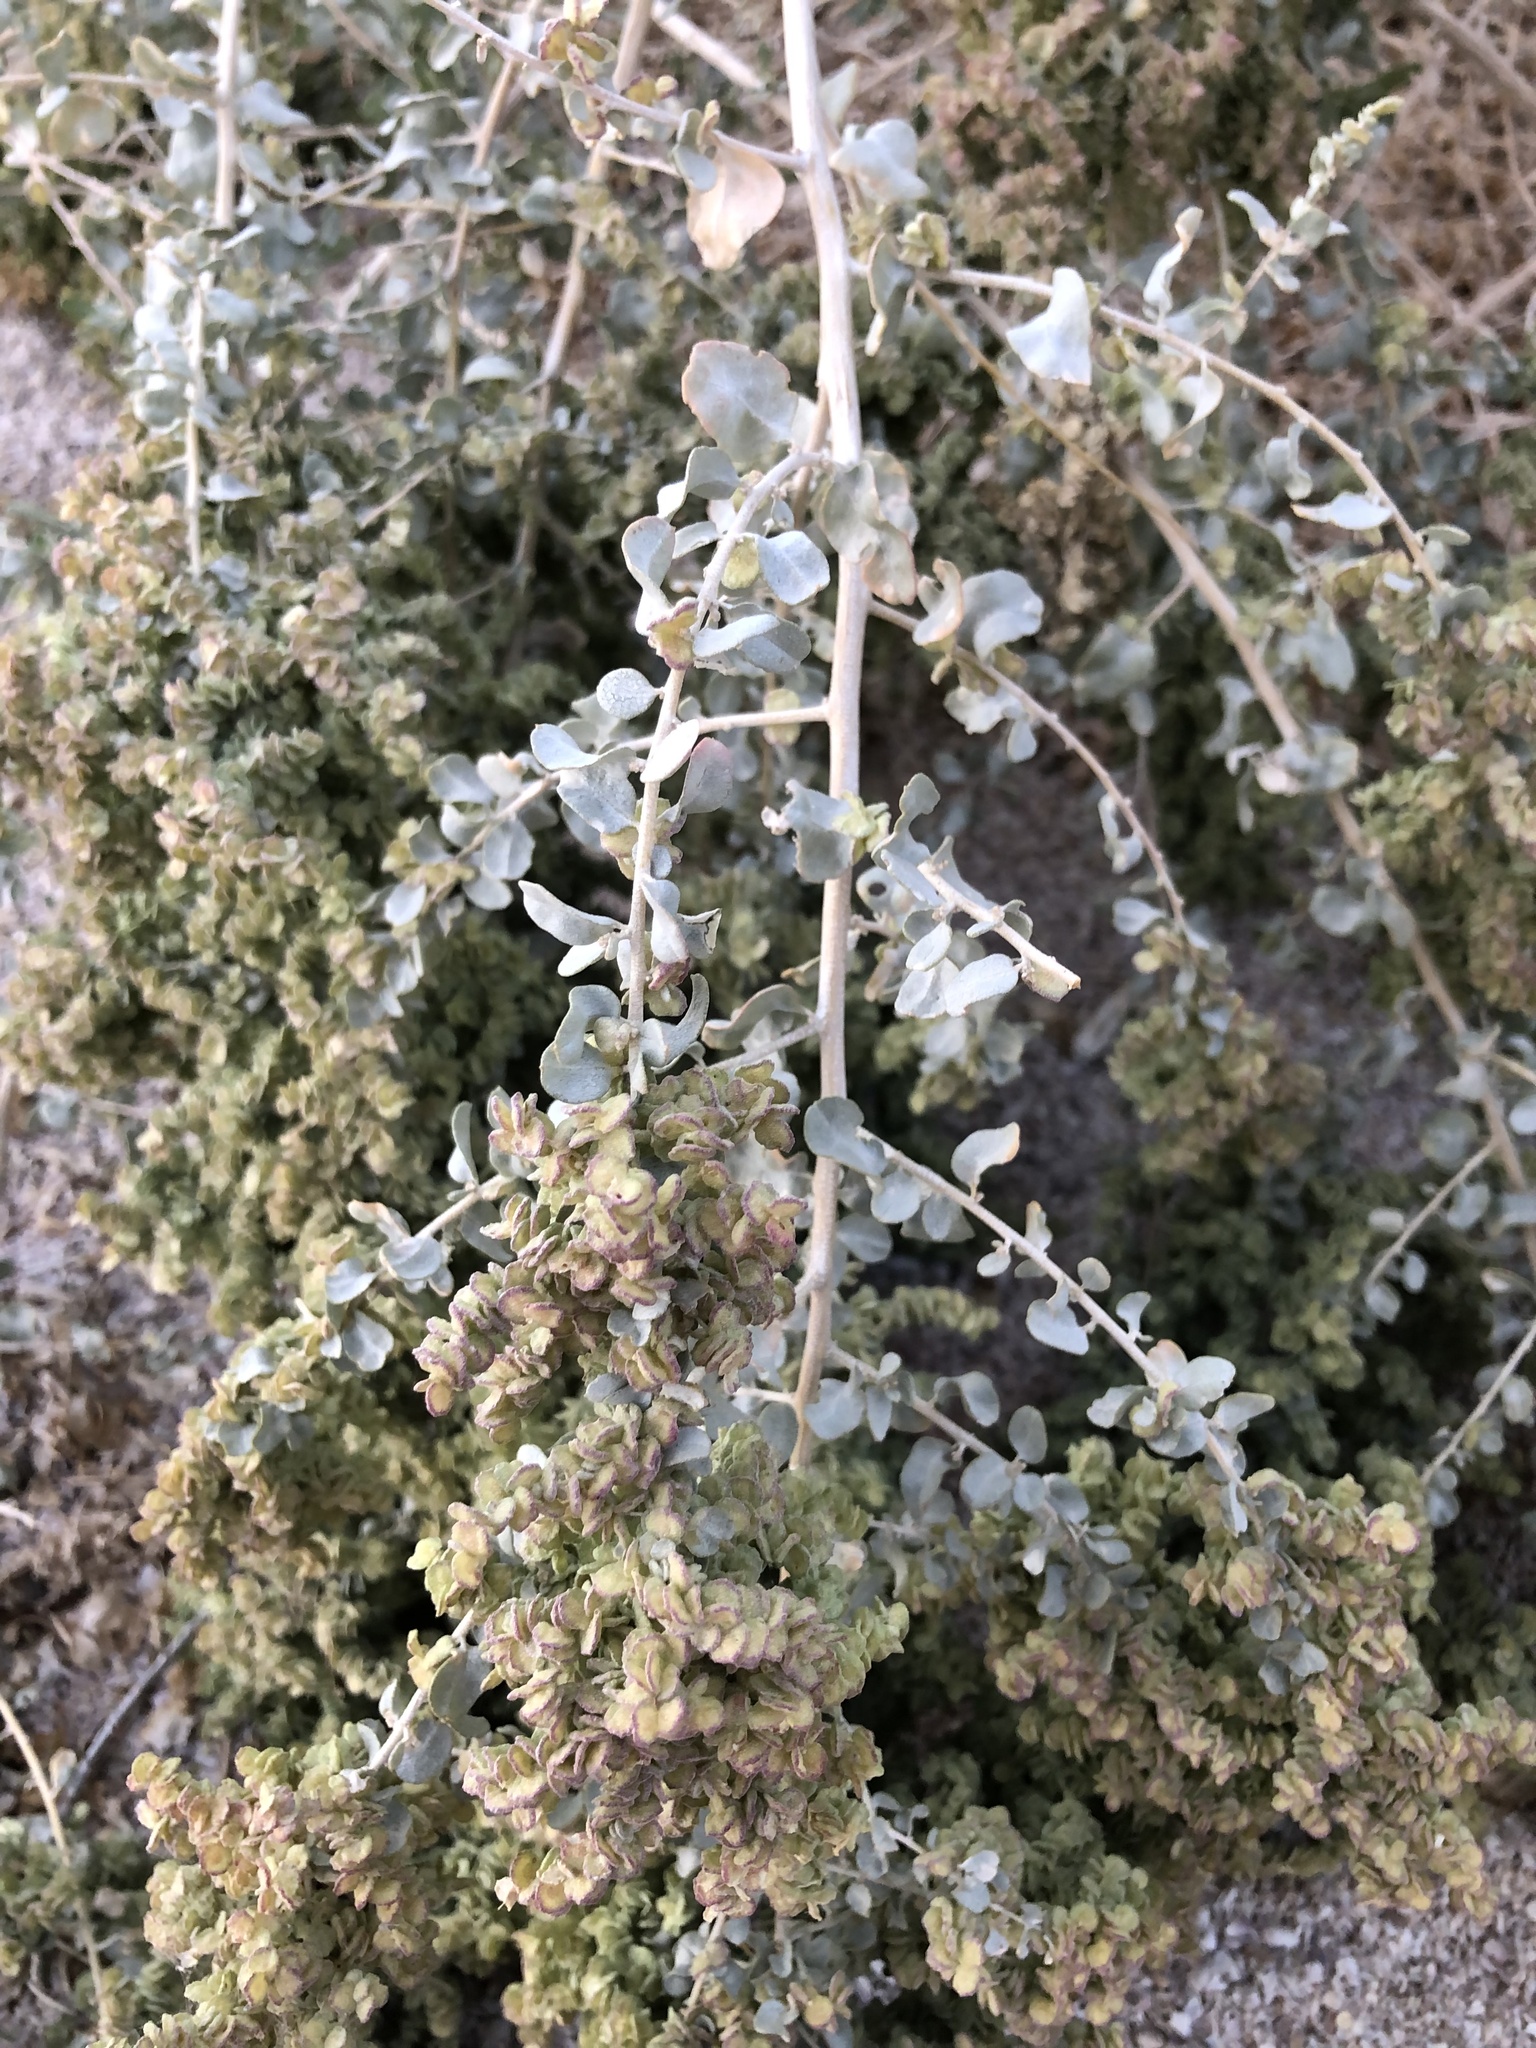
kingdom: Plantae
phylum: Tracheophyta
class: Magnoliopsida
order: Caryophyllales
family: Amaranthaceae
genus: Atriplex
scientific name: Atriplex lentiformis
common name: Big saltbush
